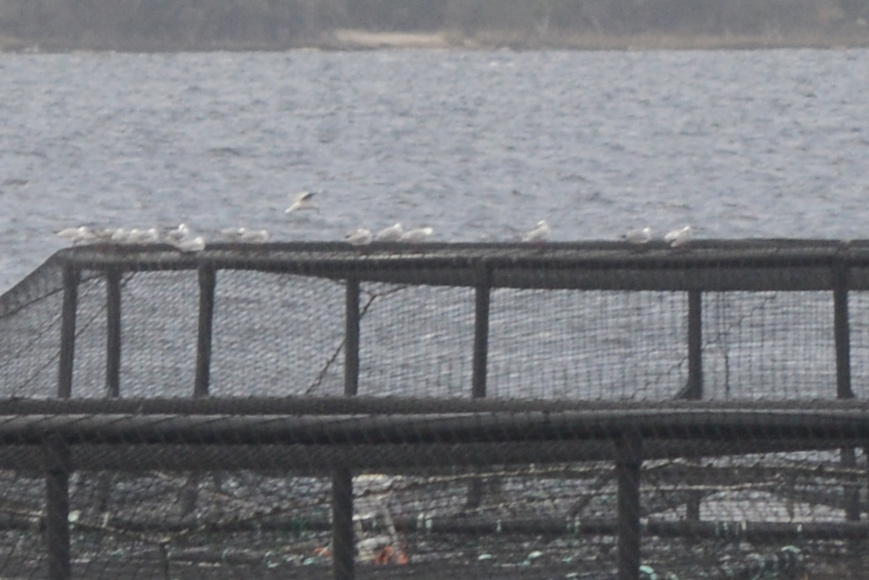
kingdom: Animalia
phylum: Chordata
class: Aves
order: Charadriiformes
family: Laridae
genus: Chroicocephalus
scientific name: Chroicocephalus novaehollandiae
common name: Silver gull
